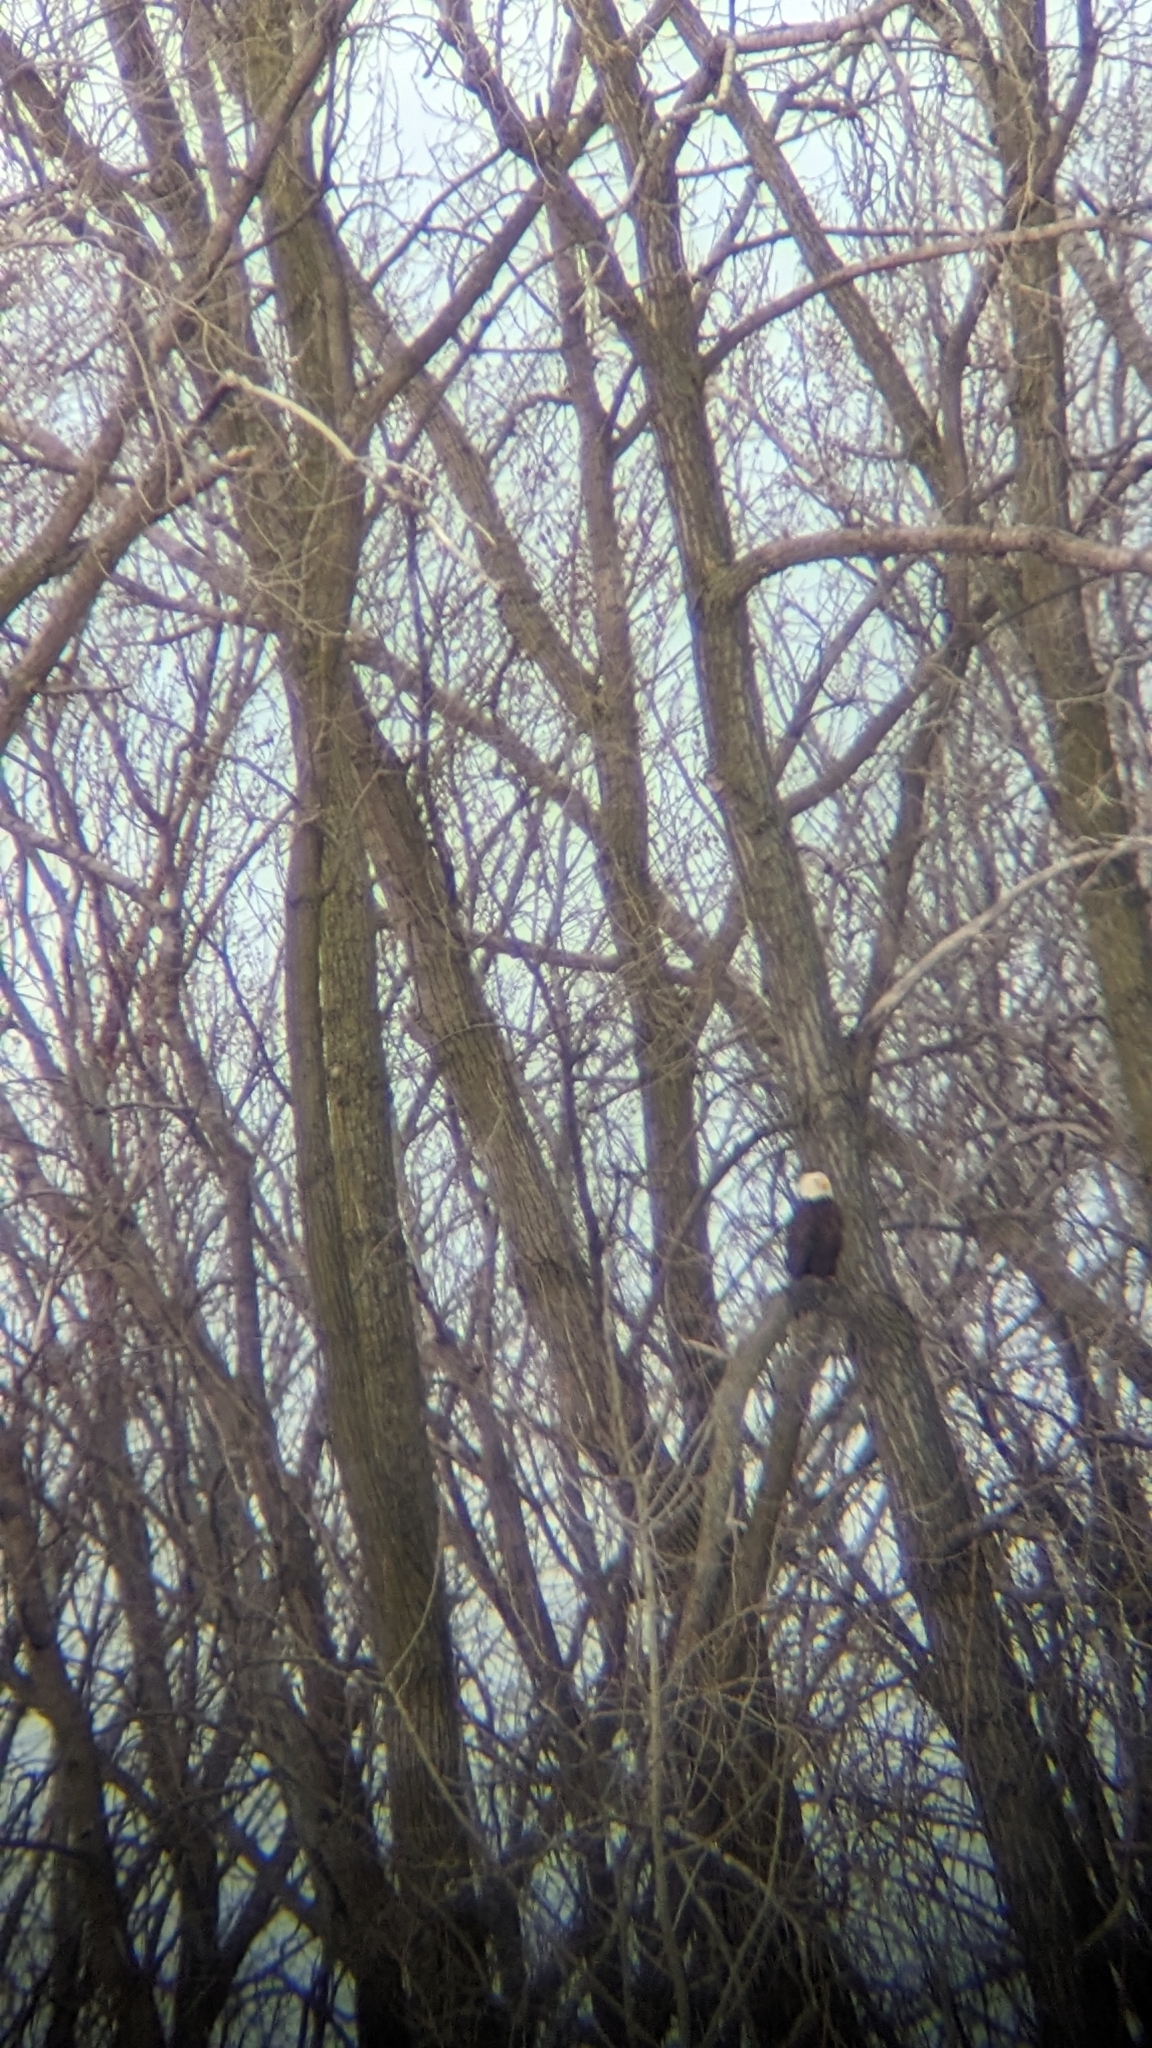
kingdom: Animalia
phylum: Chordata
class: Aves
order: Accipitriformes
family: Accipitridae
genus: Haliaeetus
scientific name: Haliaeetus leucocephalus
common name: Bald eagle
